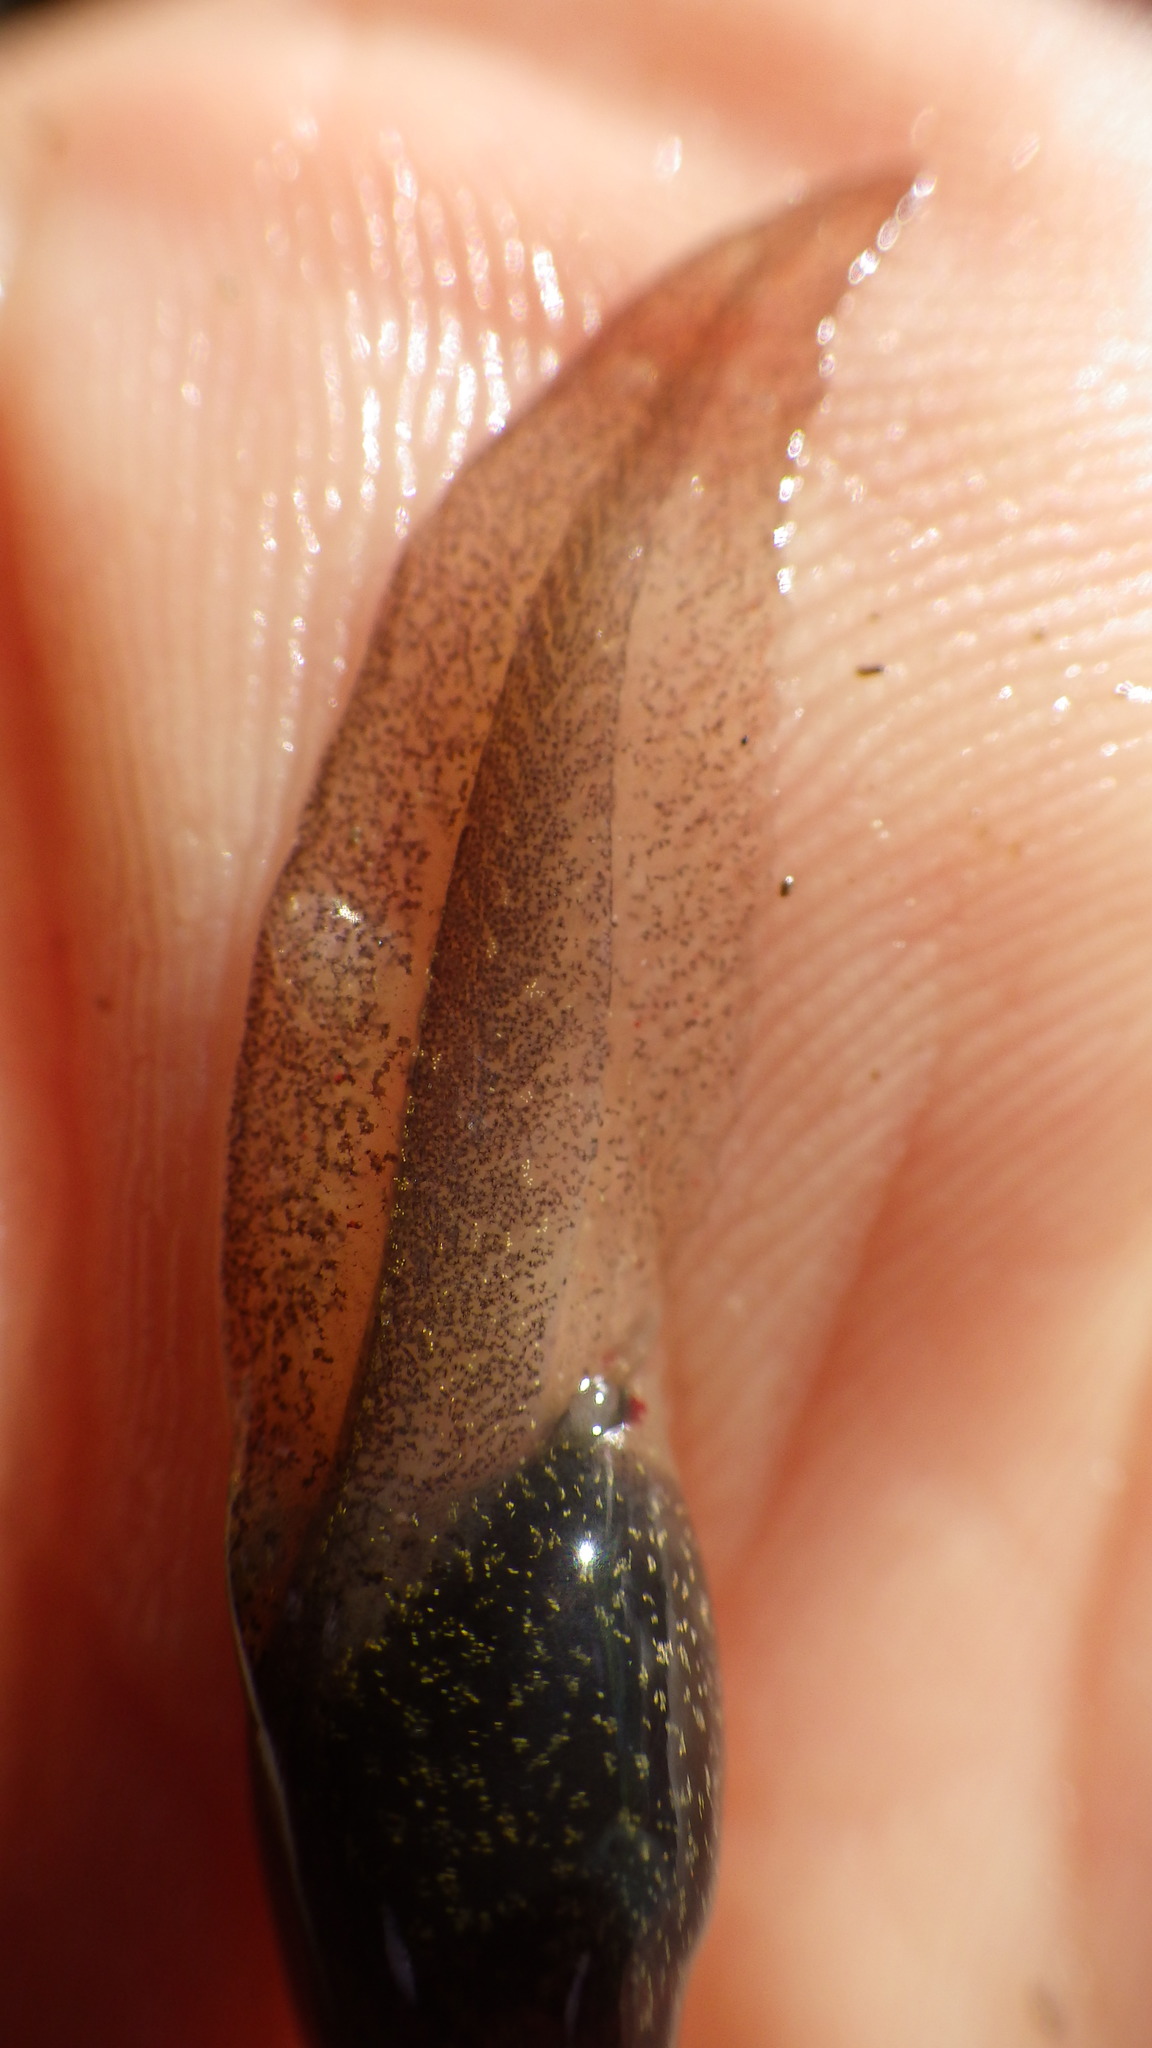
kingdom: Animalia
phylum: Chordata
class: Amphibia
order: Anura
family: Ranidae
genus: Rana
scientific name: Rana temporaria
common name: Common frog
